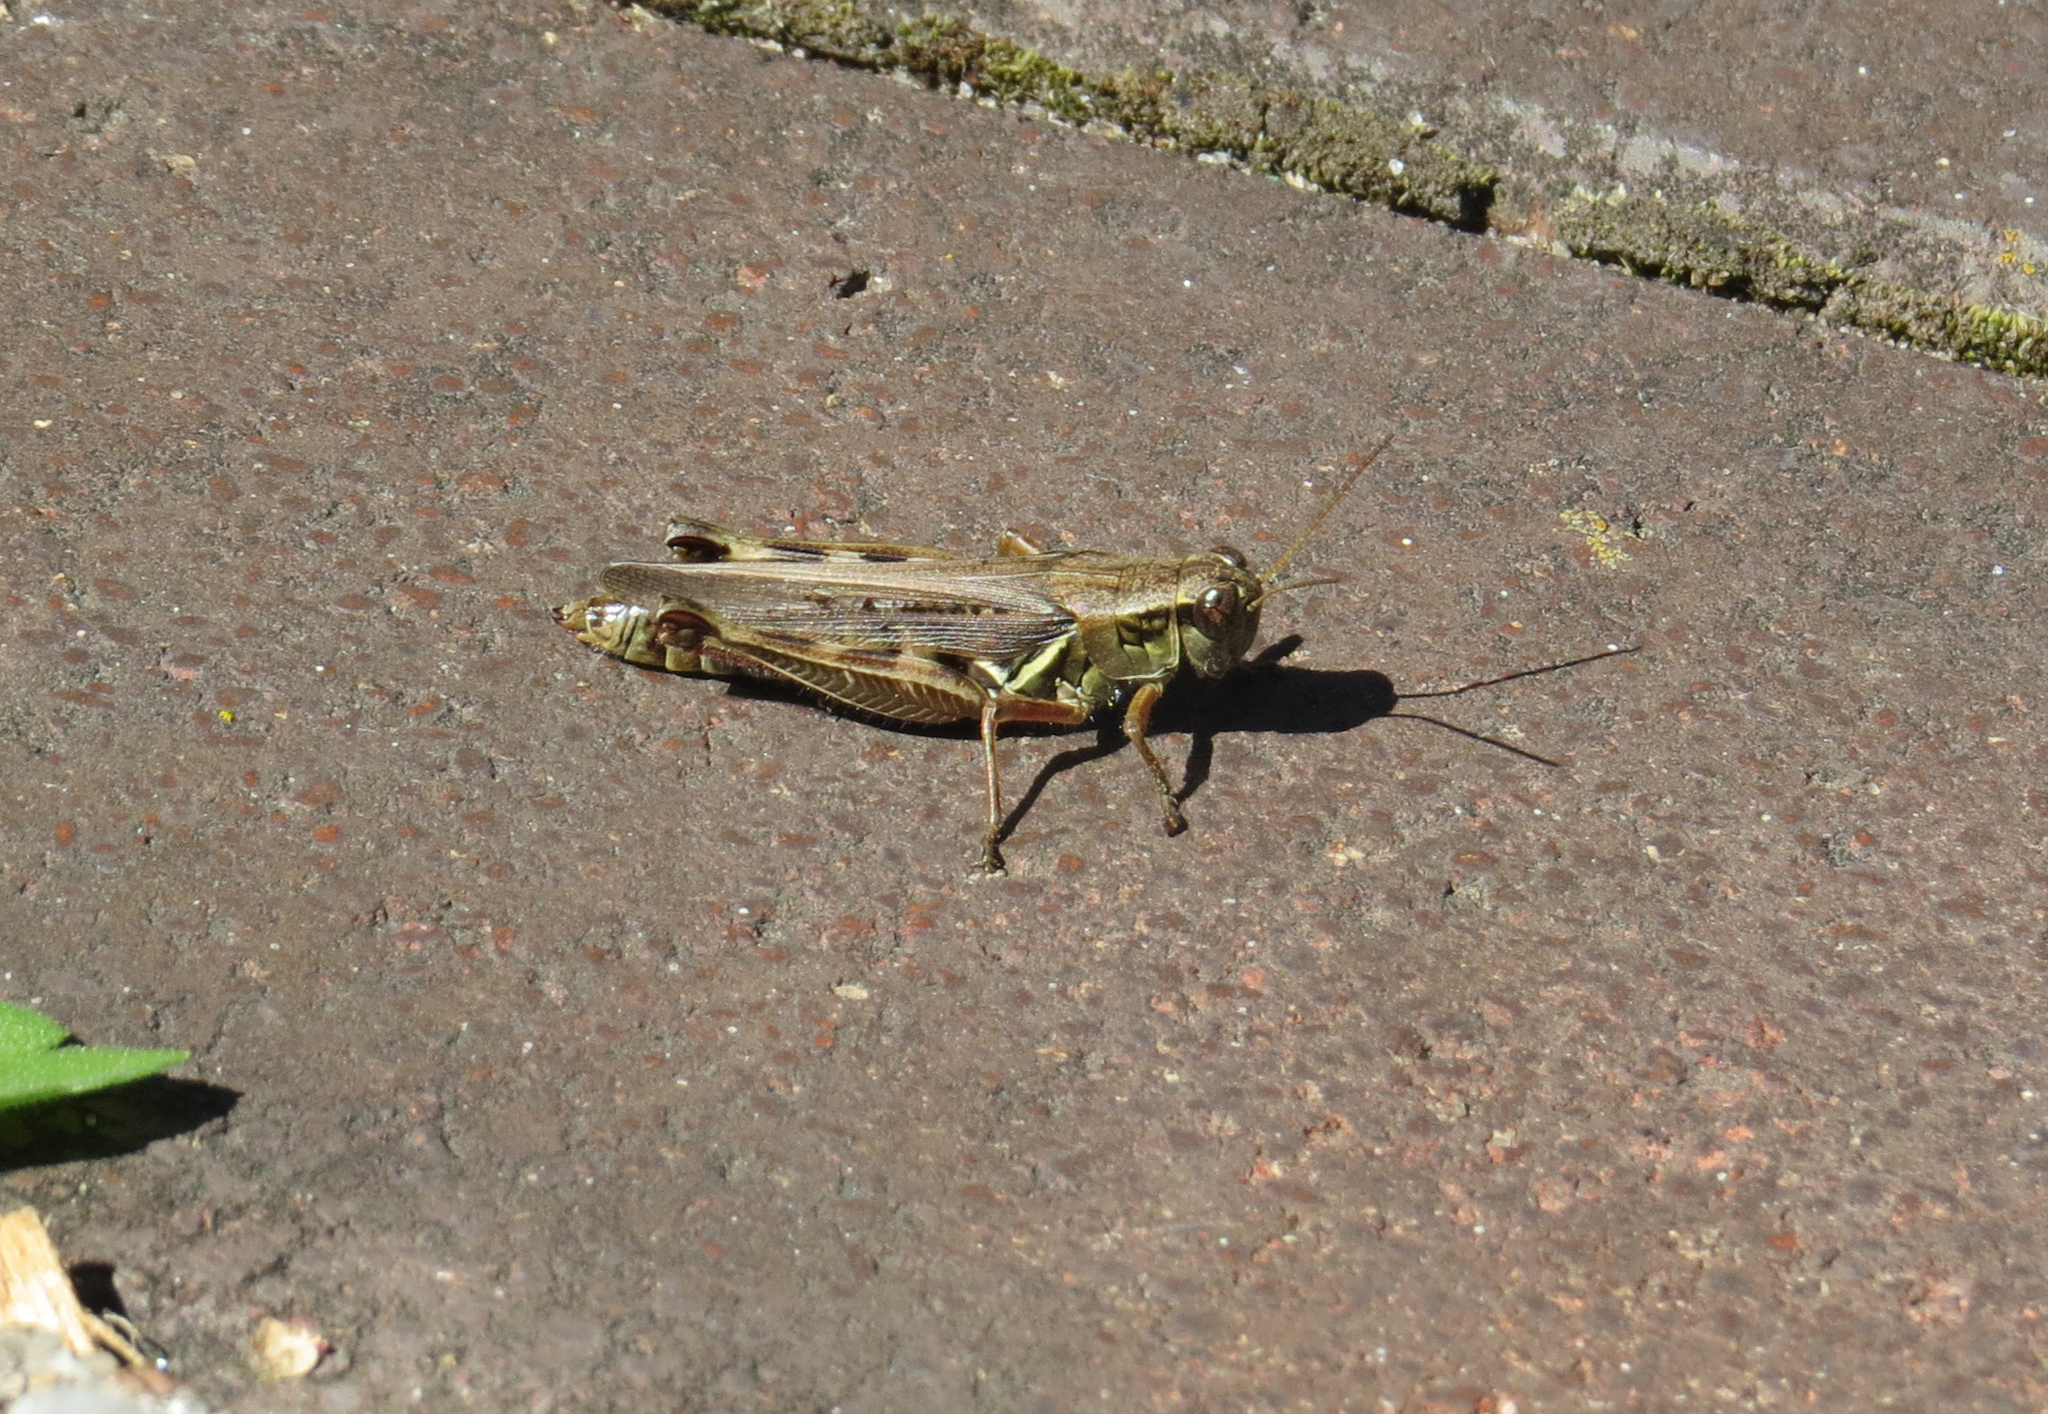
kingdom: Animalia
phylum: Arthropoda
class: Insecta
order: Orthoptera
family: Acrididae
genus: Melanoplus
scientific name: Melanoplus femurrubrum
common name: Red-legged grasshopper
